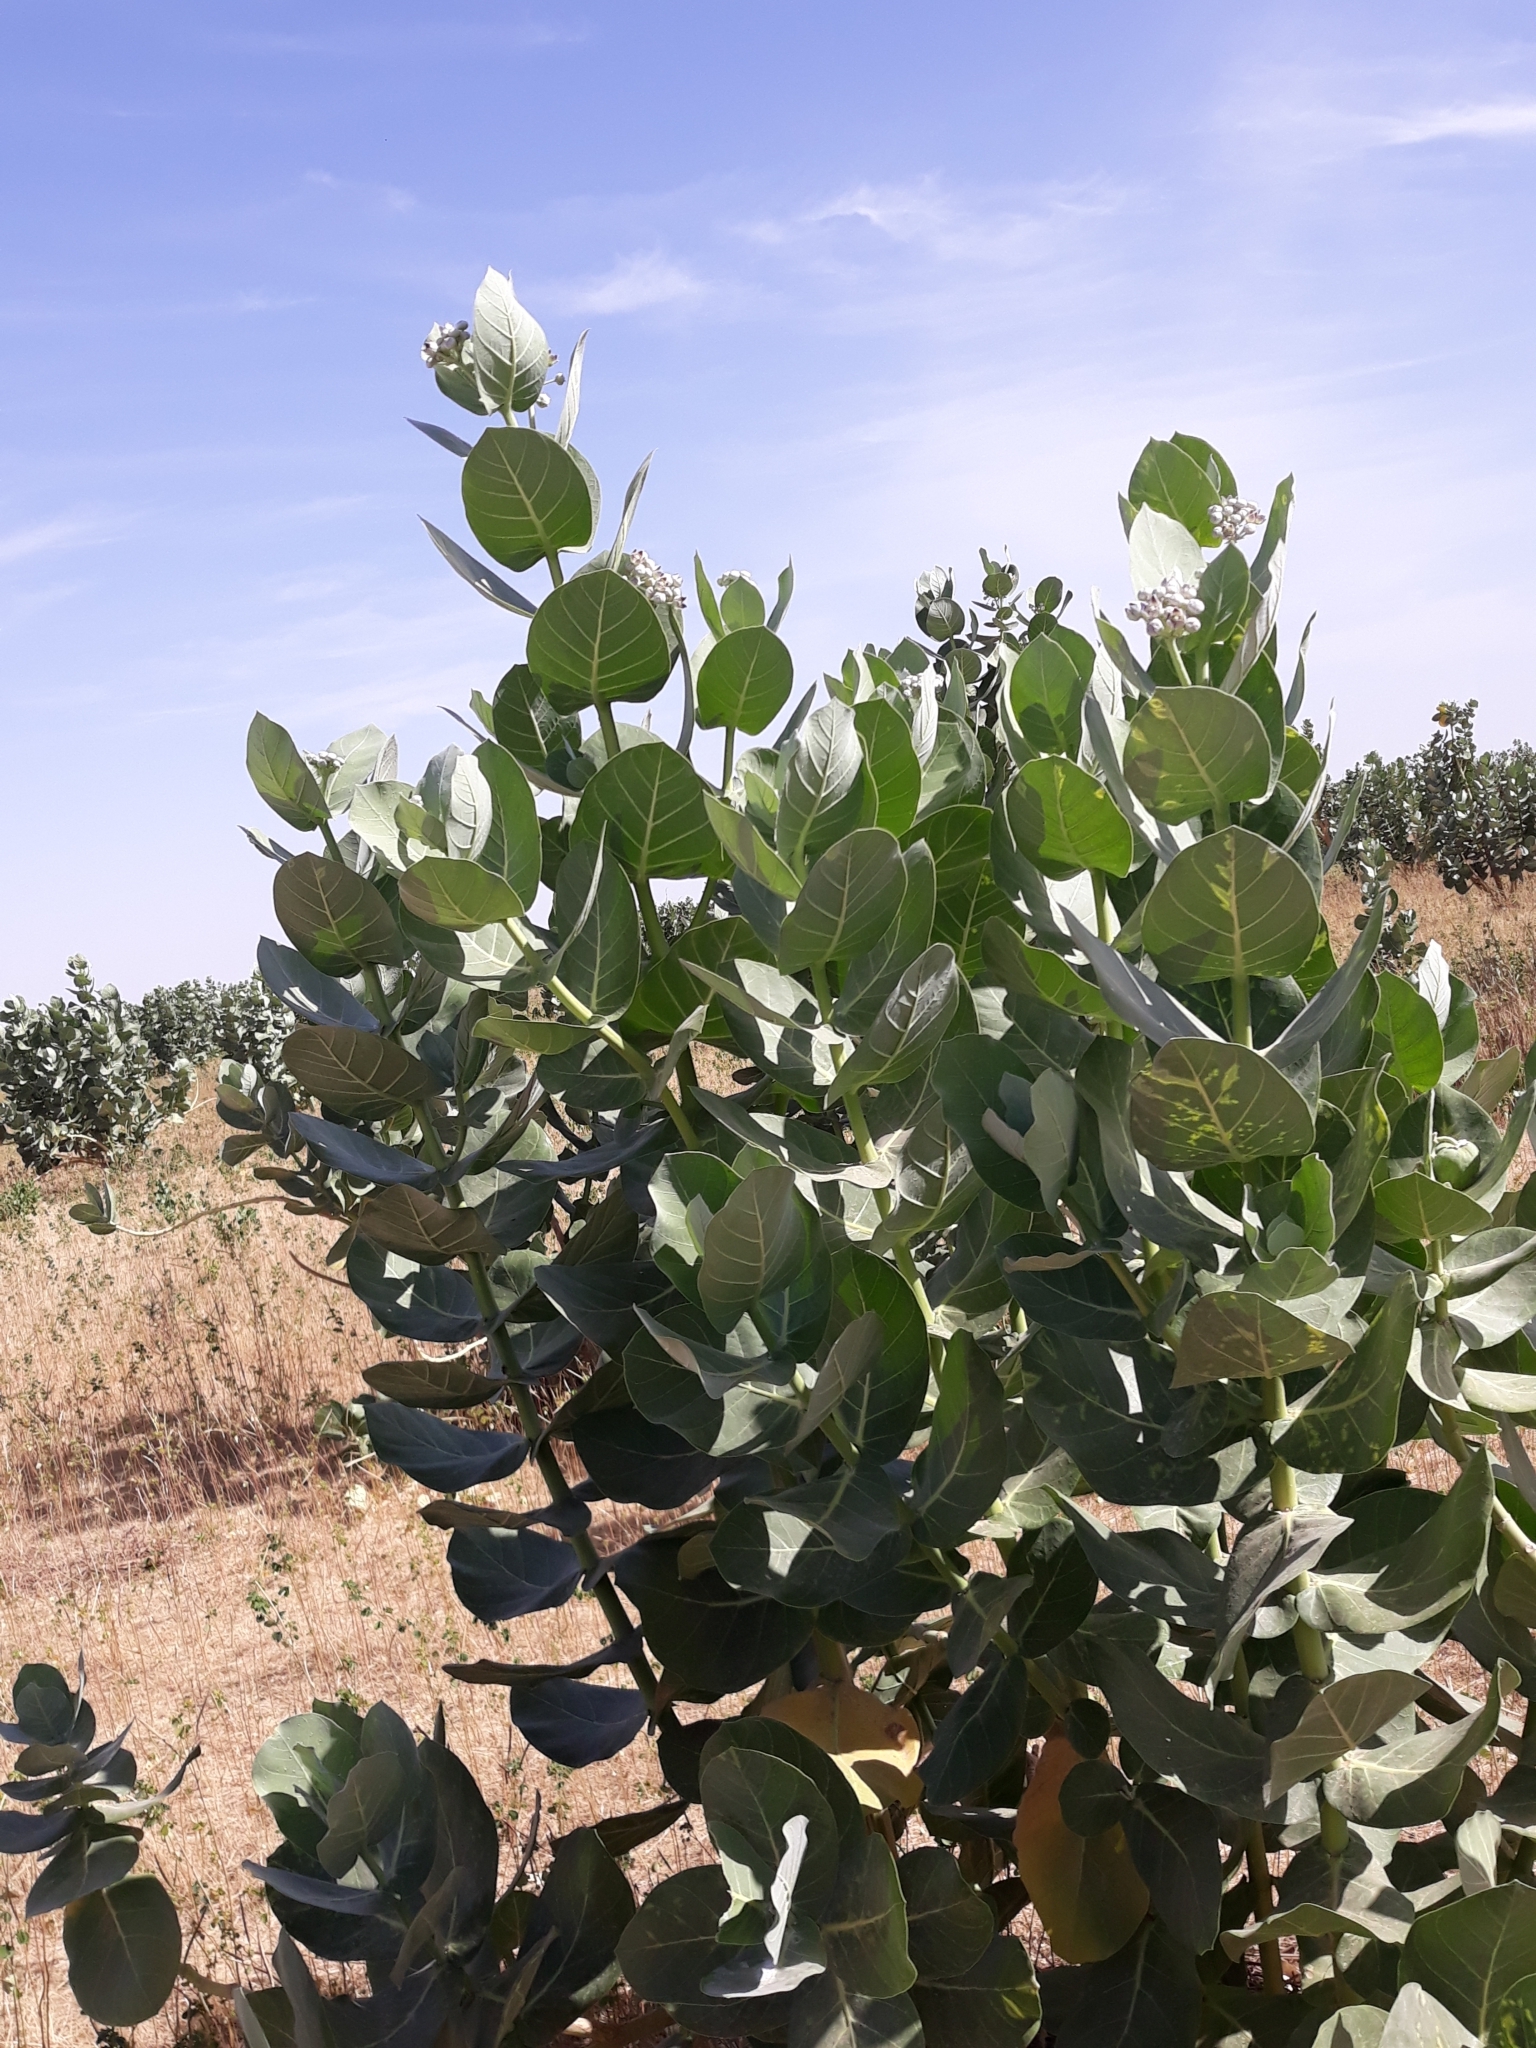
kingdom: Plantae
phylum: Tracheophyta
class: Magnoliopsida
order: Gentianales
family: Apocynaceae
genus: Calotropis
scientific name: Calotropis procera
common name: Roostertree
